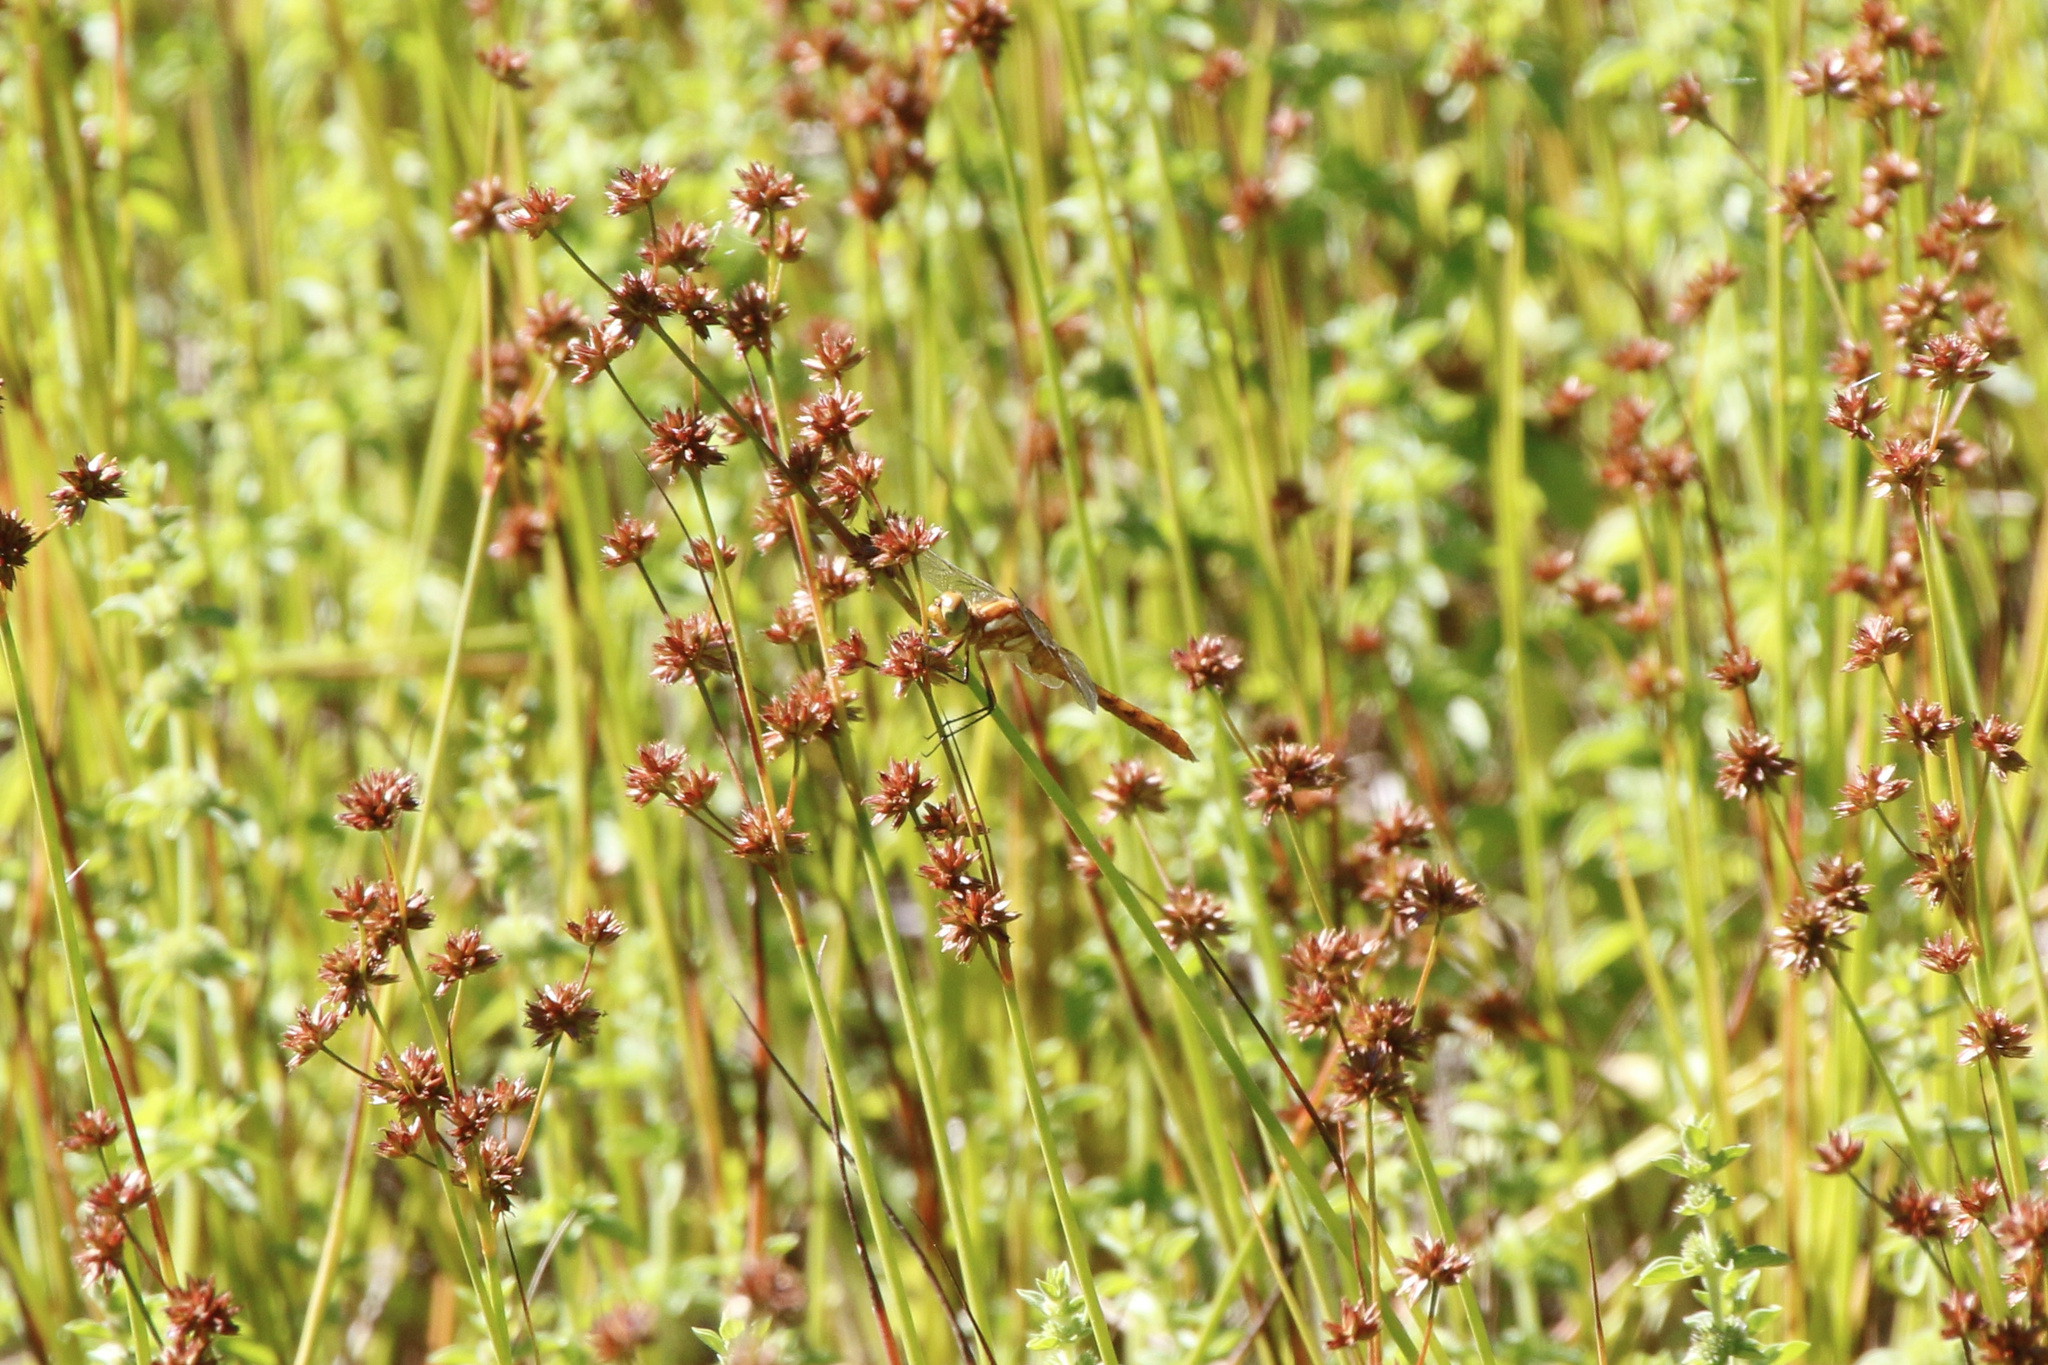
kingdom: Animalia
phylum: Arthropoda
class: Insecta
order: Odonata
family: Libellulidae
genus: Sympetrum
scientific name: Sympetrum pallipes
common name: Striped meadowhawk
